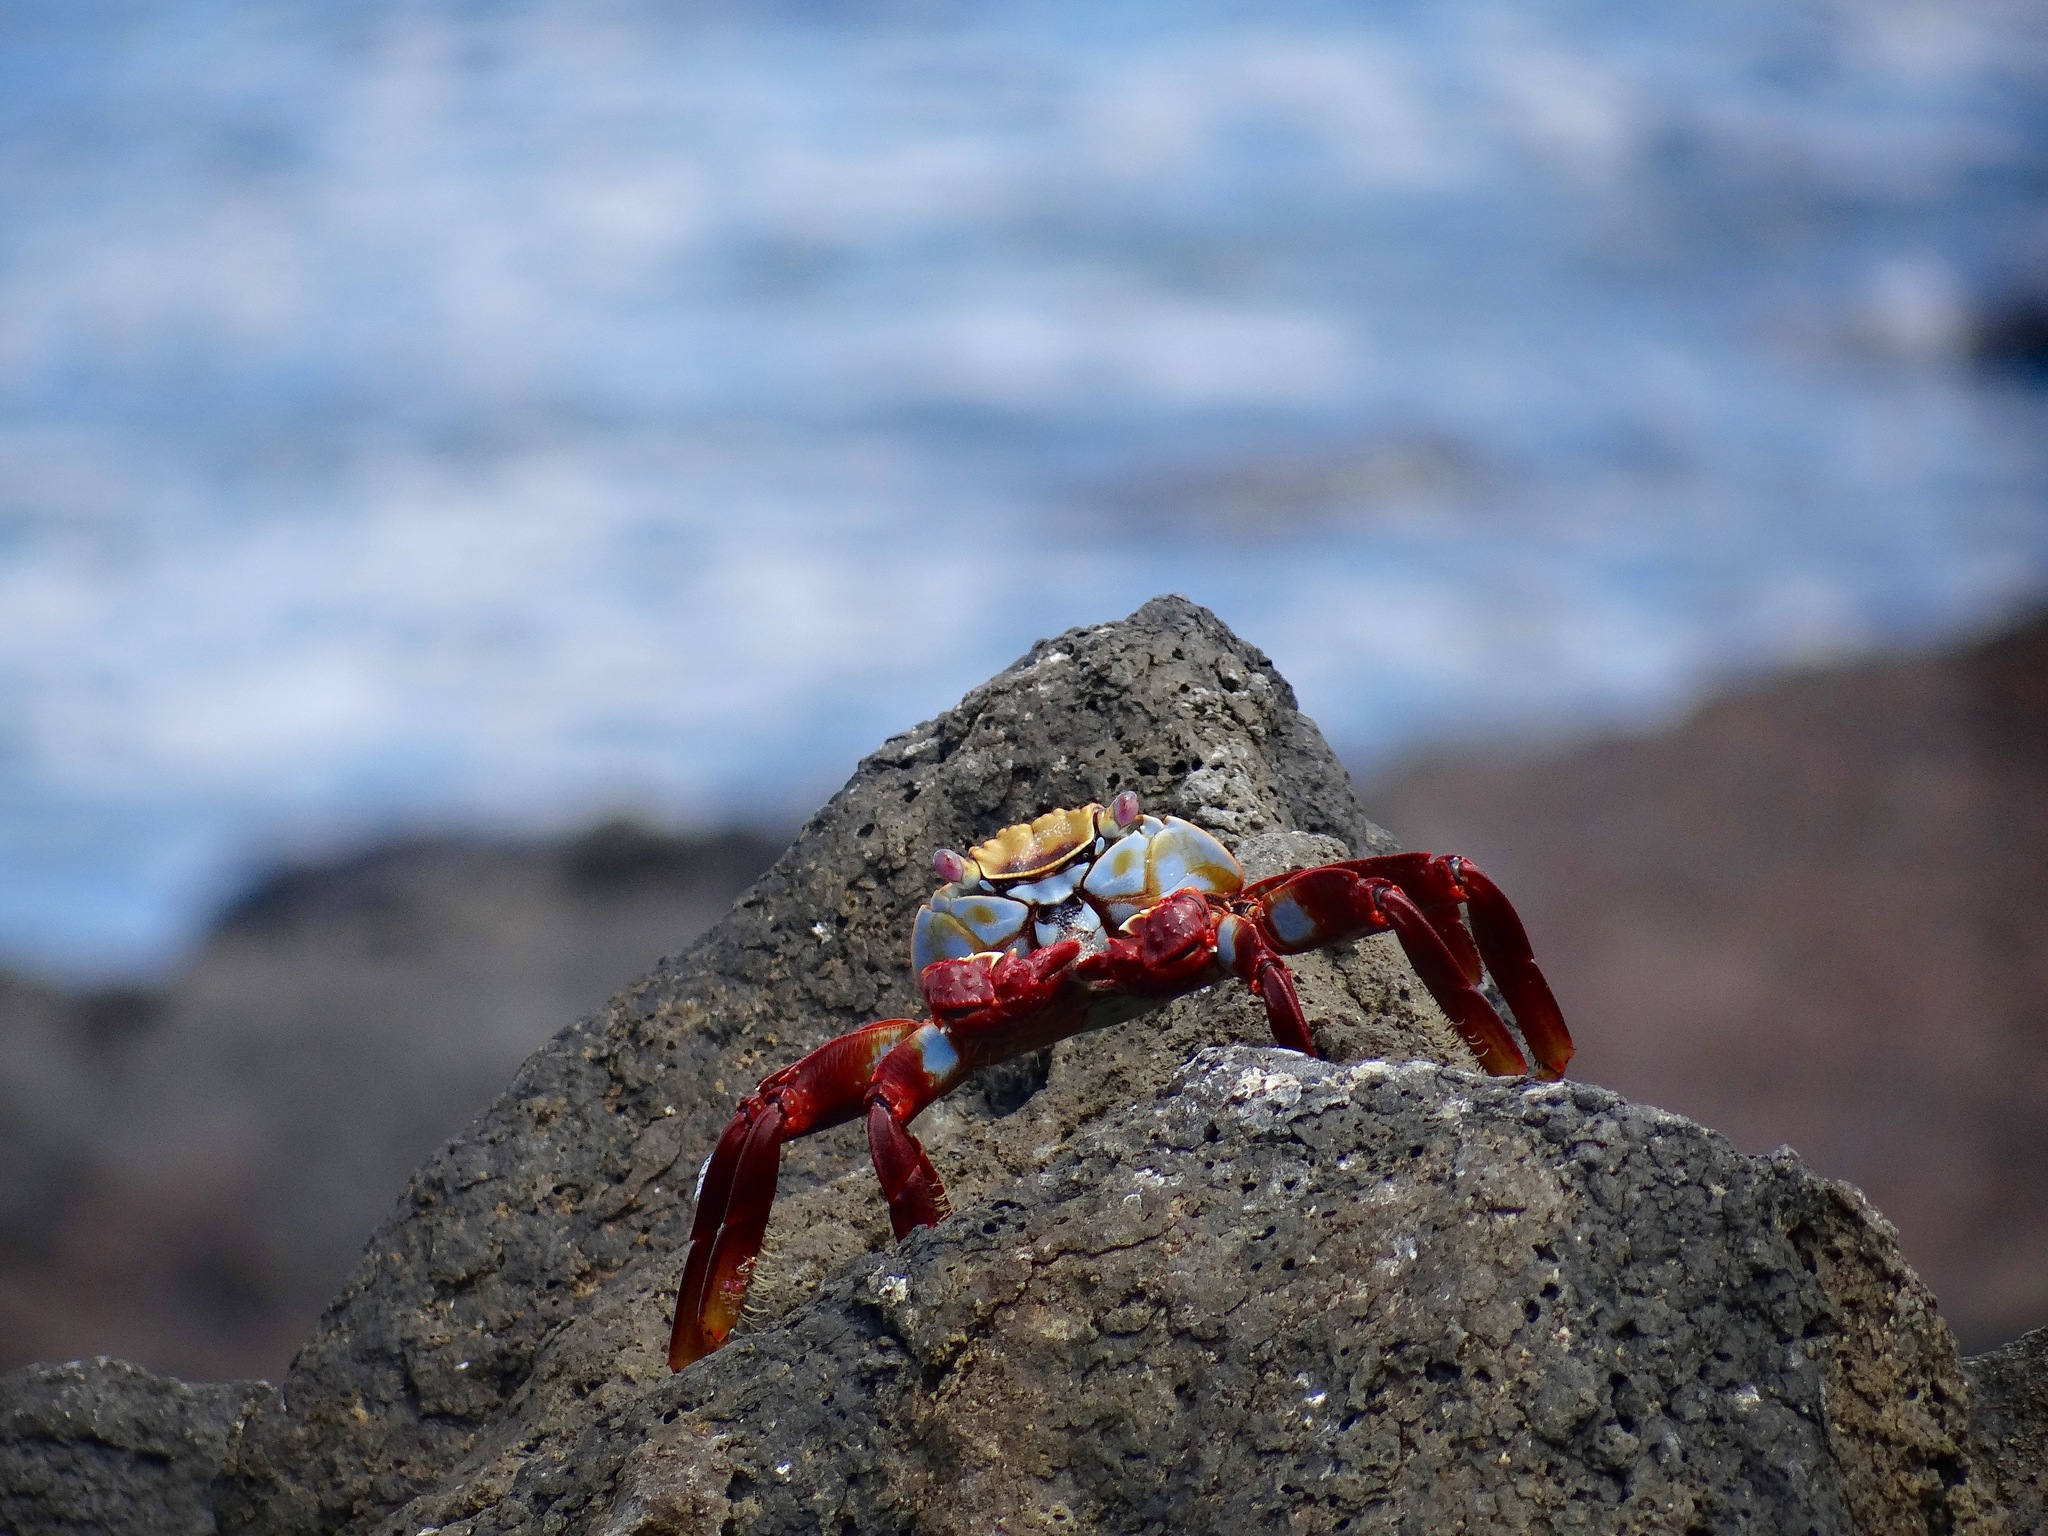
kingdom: Animalia
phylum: Arthropoda
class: Malacostraca
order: Decapoda
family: Grapsidae
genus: Grapsus
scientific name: Grapsus grapsus
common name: Sally lightfoot
